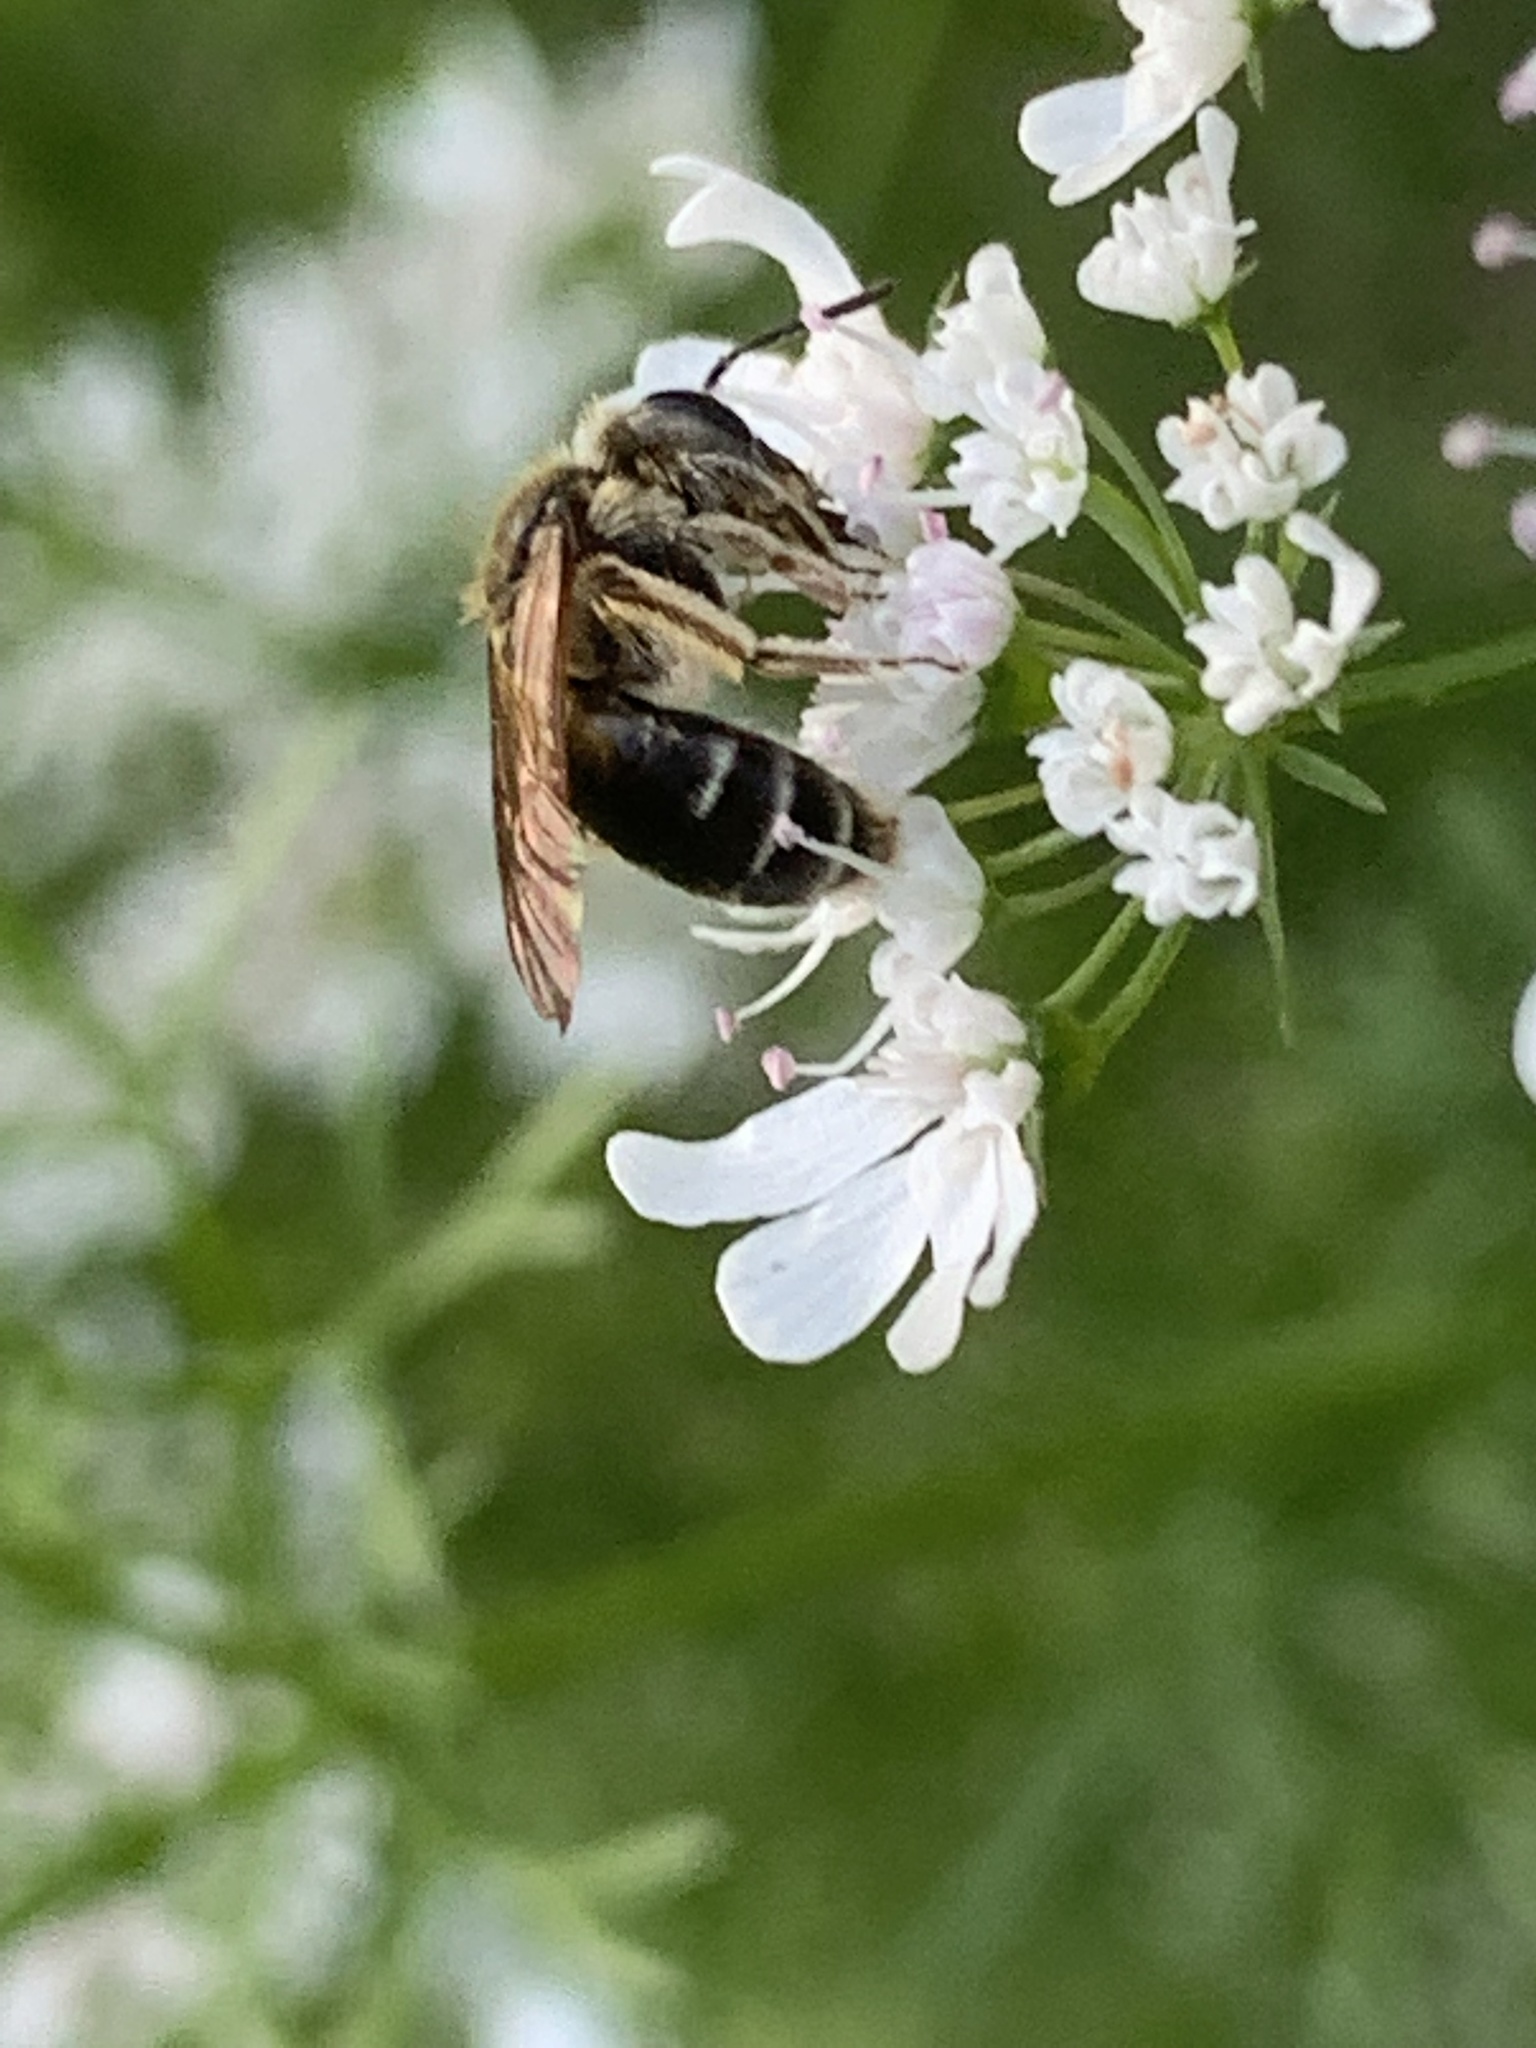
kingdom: Animalia
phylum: Arthropoda
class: Insecta
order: Hymenoptera
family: Andrenidae
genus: Andrena
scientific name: Andrena
